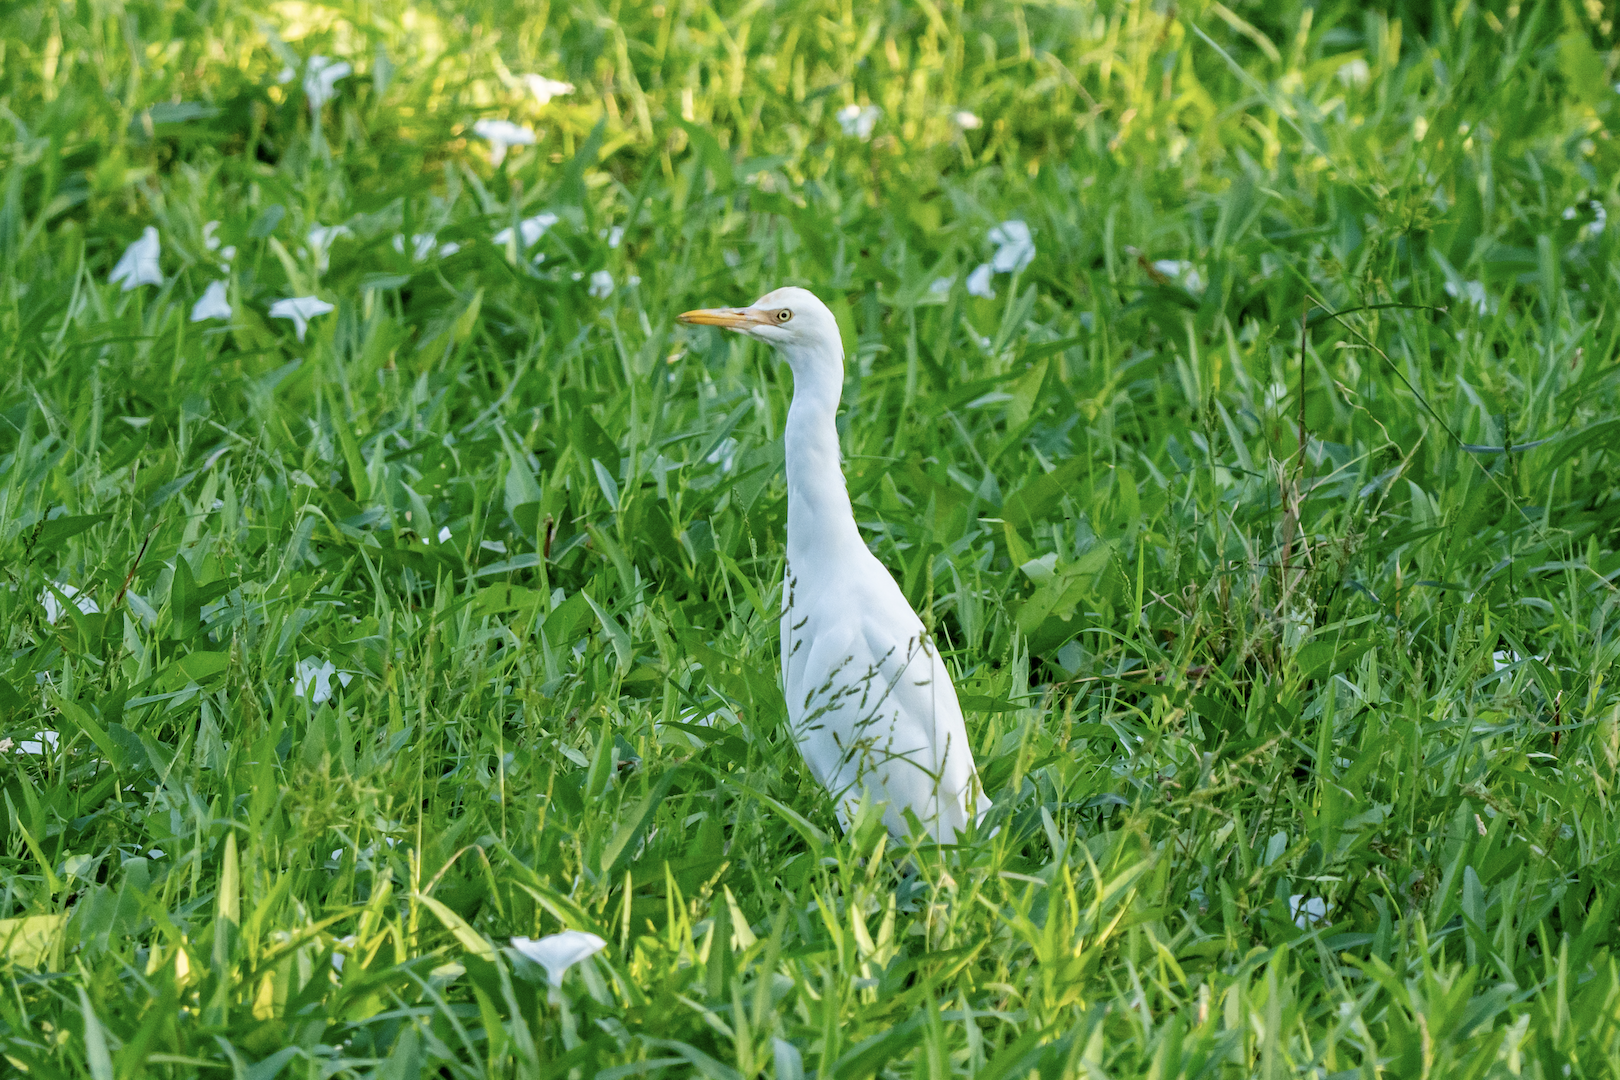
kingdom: Animalia
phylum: Chordata
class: Aves
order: Pelecaniformes
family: Ardeidae
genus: Bubulcus
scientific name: Bubulcus coromandus
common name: Eastern cattle egret
